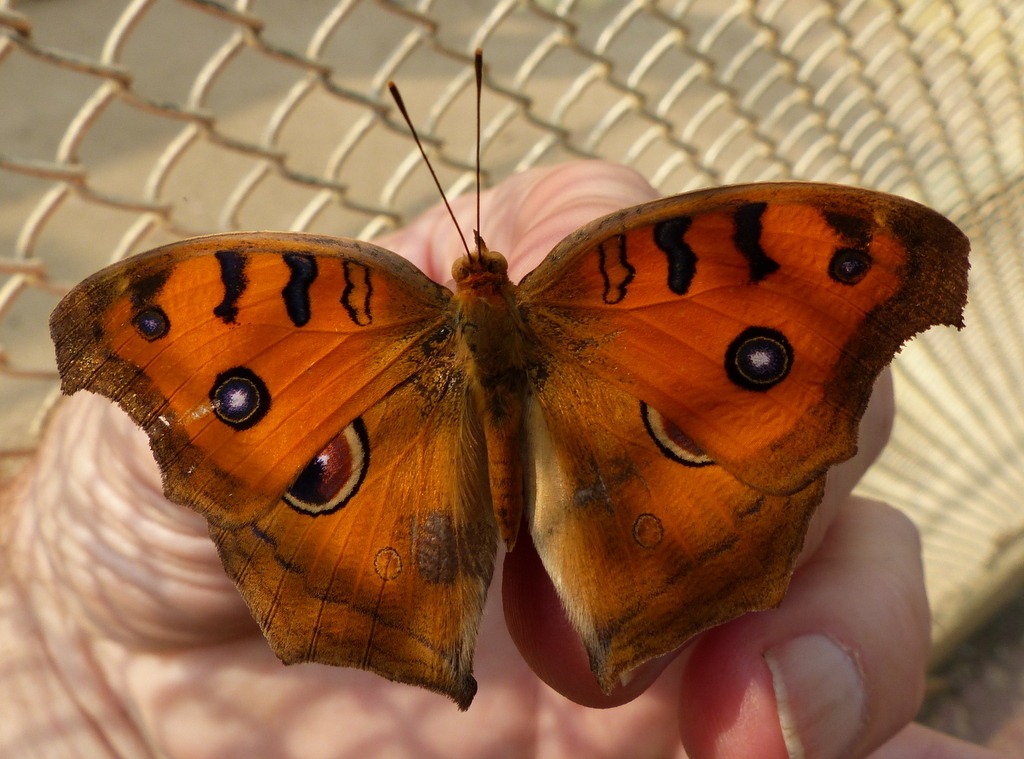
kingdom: Animalia
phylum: Arthropoda
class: Insecta
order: Lepidoptera
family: Nymphalidae
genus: Junonia
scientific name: Junonia almana
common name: Peacock pansy
